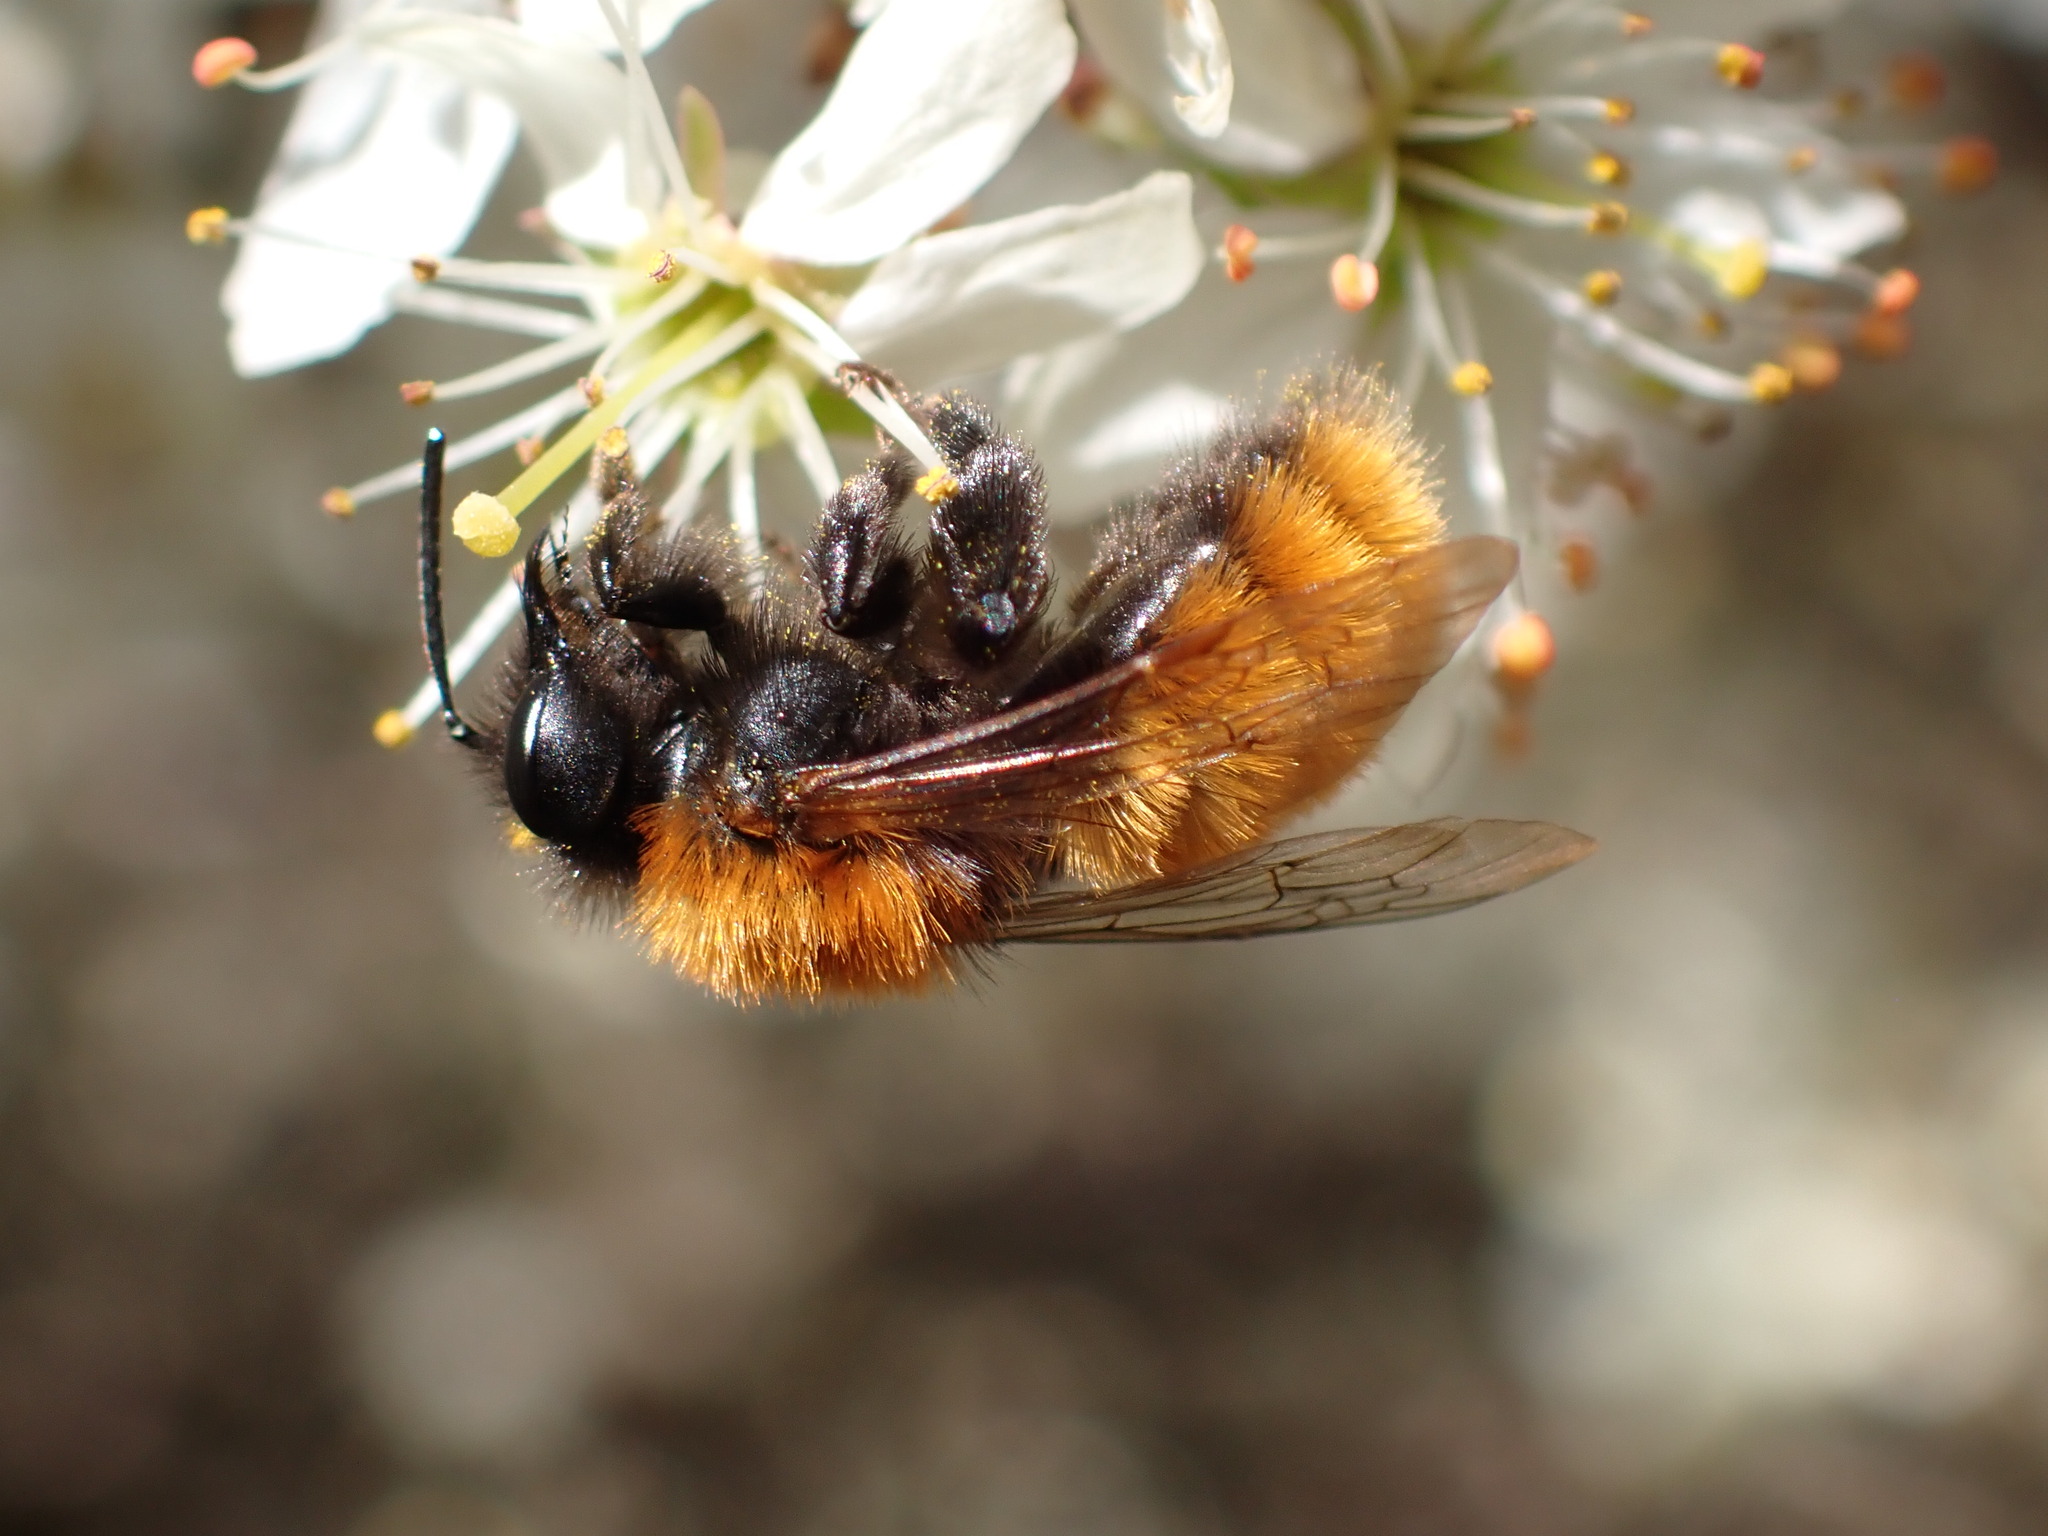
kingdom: Animalia
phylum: Arthropoda
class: Insecta
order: Hymenoptera
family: Andrenidae
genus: Andrena
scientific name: Andrena fulva
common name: Tawny mining bee
